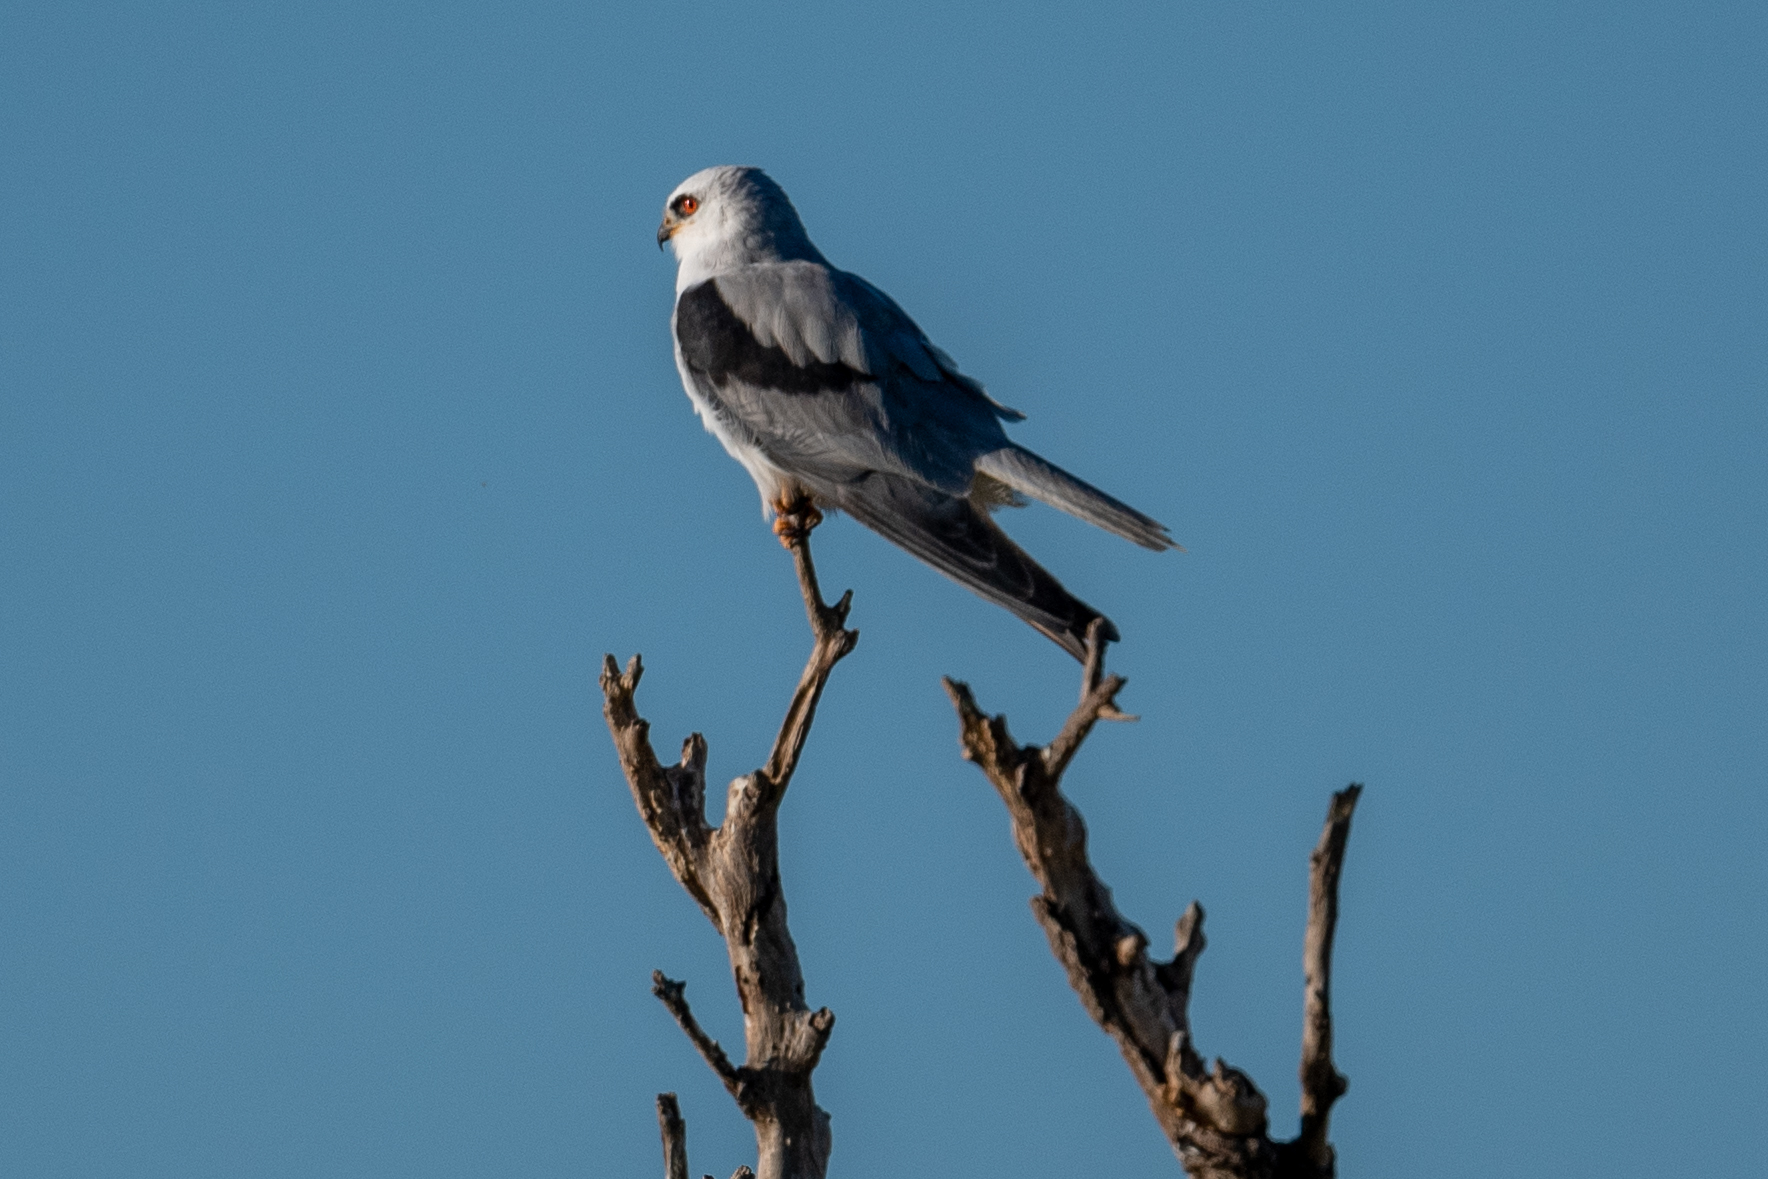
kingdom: Animalia
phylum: Chordata
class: Aves
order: Accipitriformes
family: Accipitridae
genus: Elanus
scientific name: Elanus leucurus
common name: White-tailed kite
